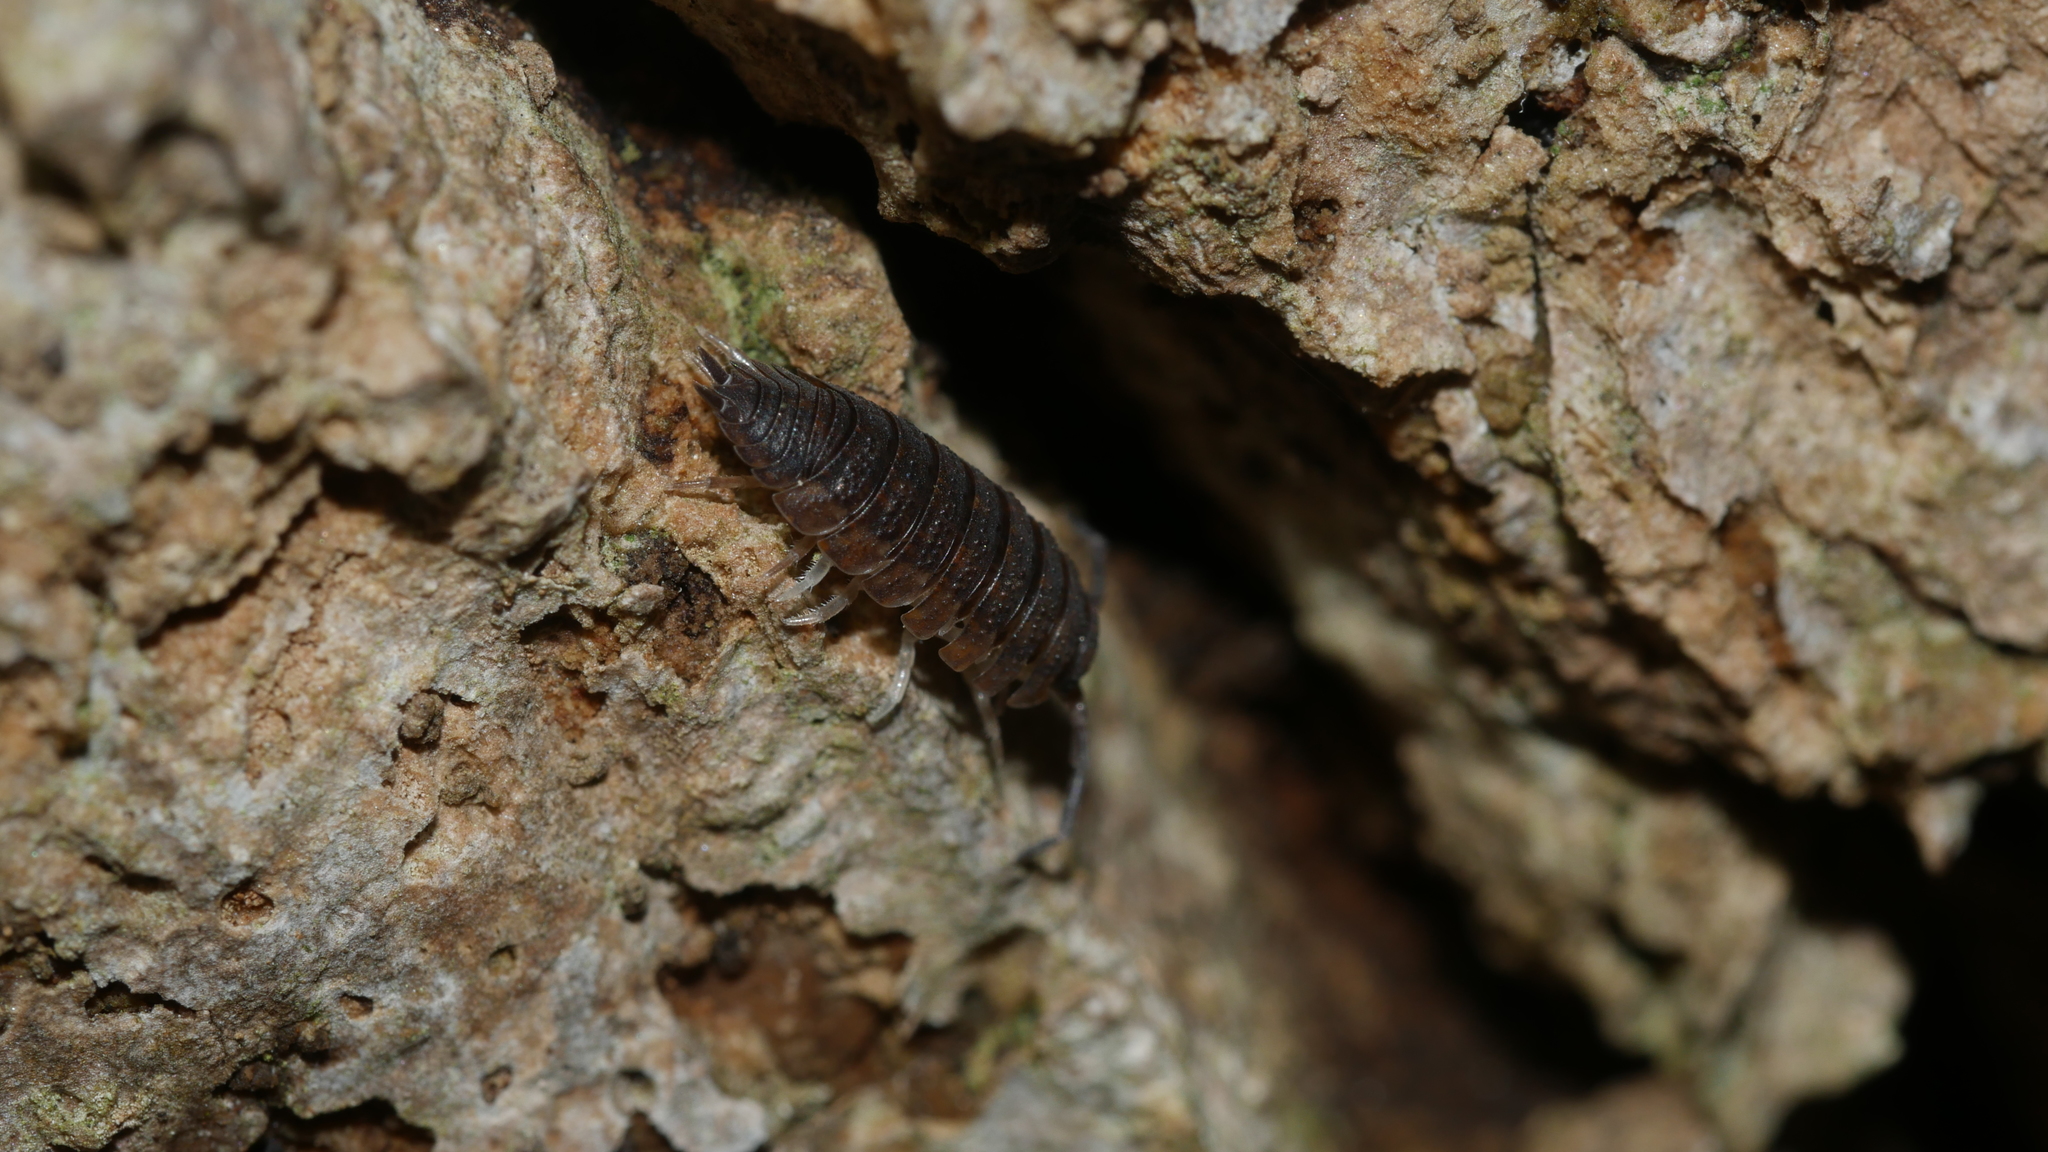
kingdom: Animalia
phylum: Arthropoda
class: Malacostraca
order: Isopoda
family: Porcellionidae
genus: Porcellio
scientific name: Porcellio scaber
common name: Common rough woodlouse
